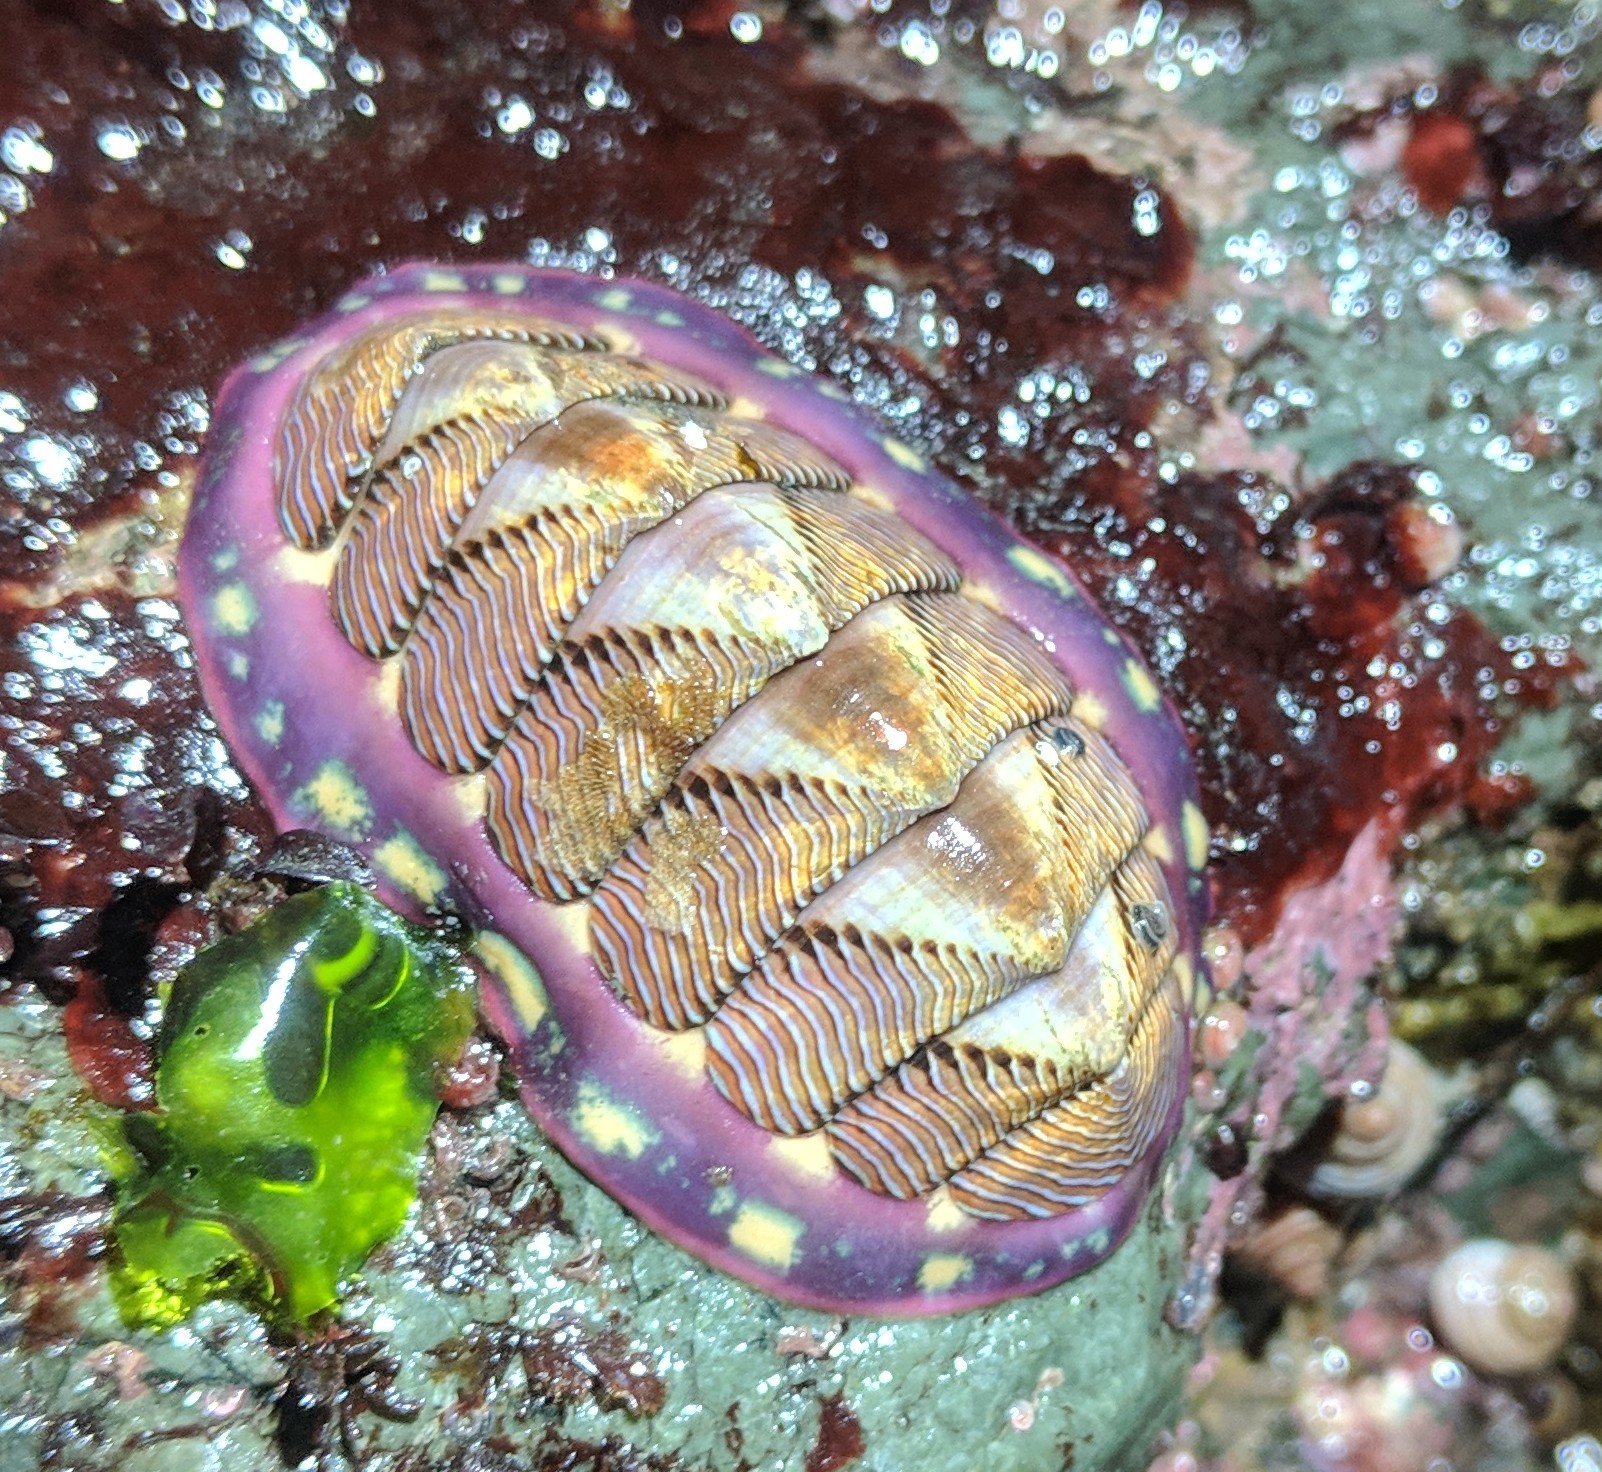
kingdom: Animalia
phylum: Mollusca
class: Polyplacophora
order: Chitonida
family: Tonicellidae
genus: Tonicella
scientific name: Tonicella lineata
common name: Lined chiton
